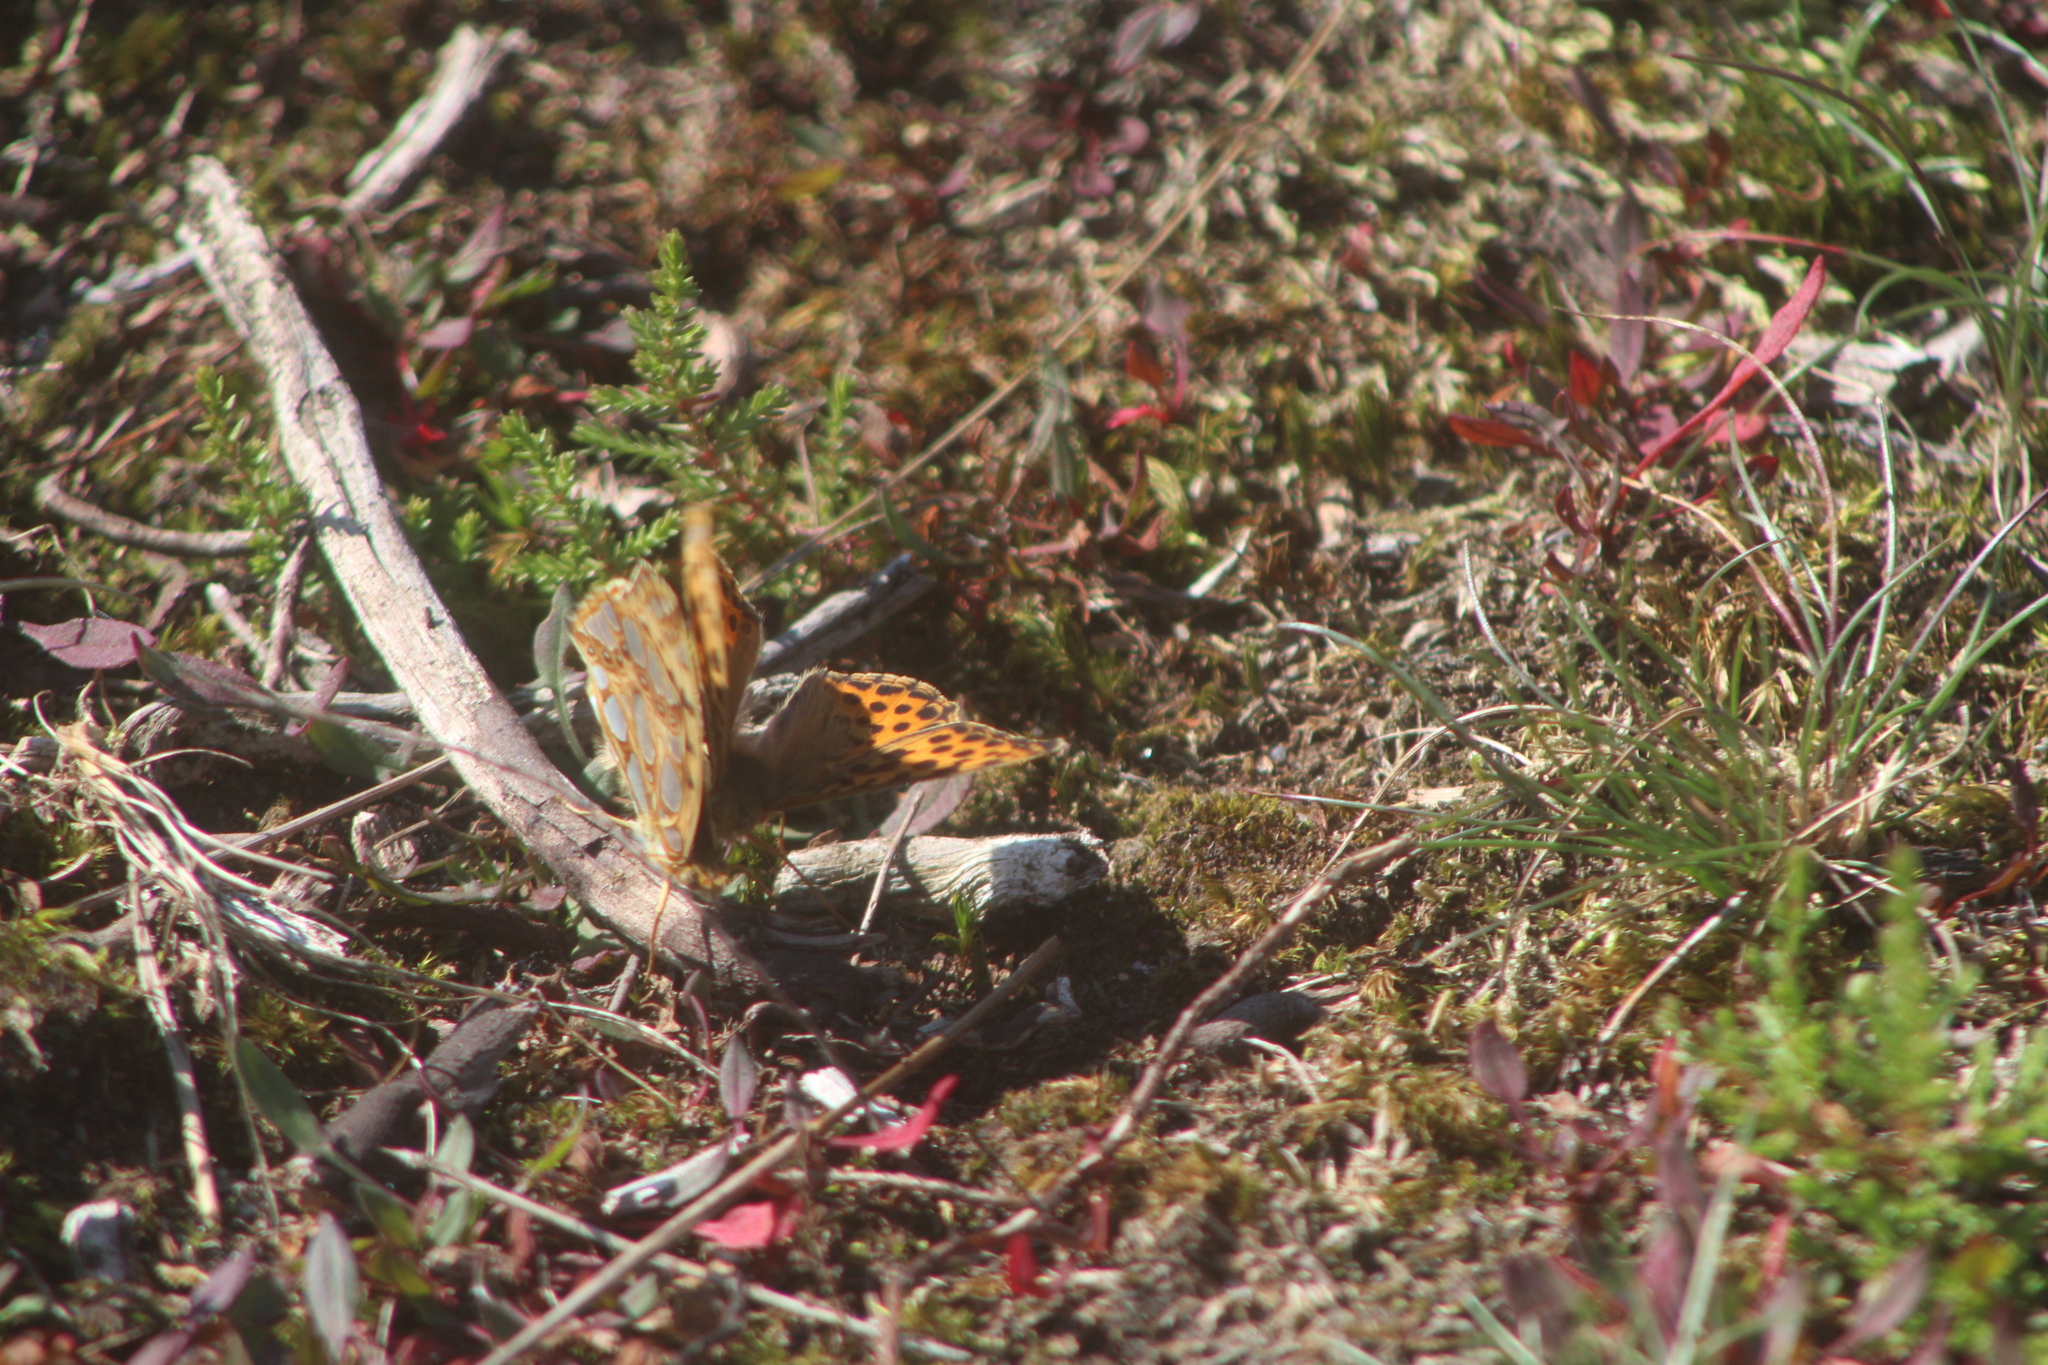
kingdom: Animalia
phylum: Arthropoda
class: Insecta
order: Lepidoptera
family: Nymphalidae
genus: Issoria
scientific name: Issoria lathonia
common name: Queen of spain fritillary
